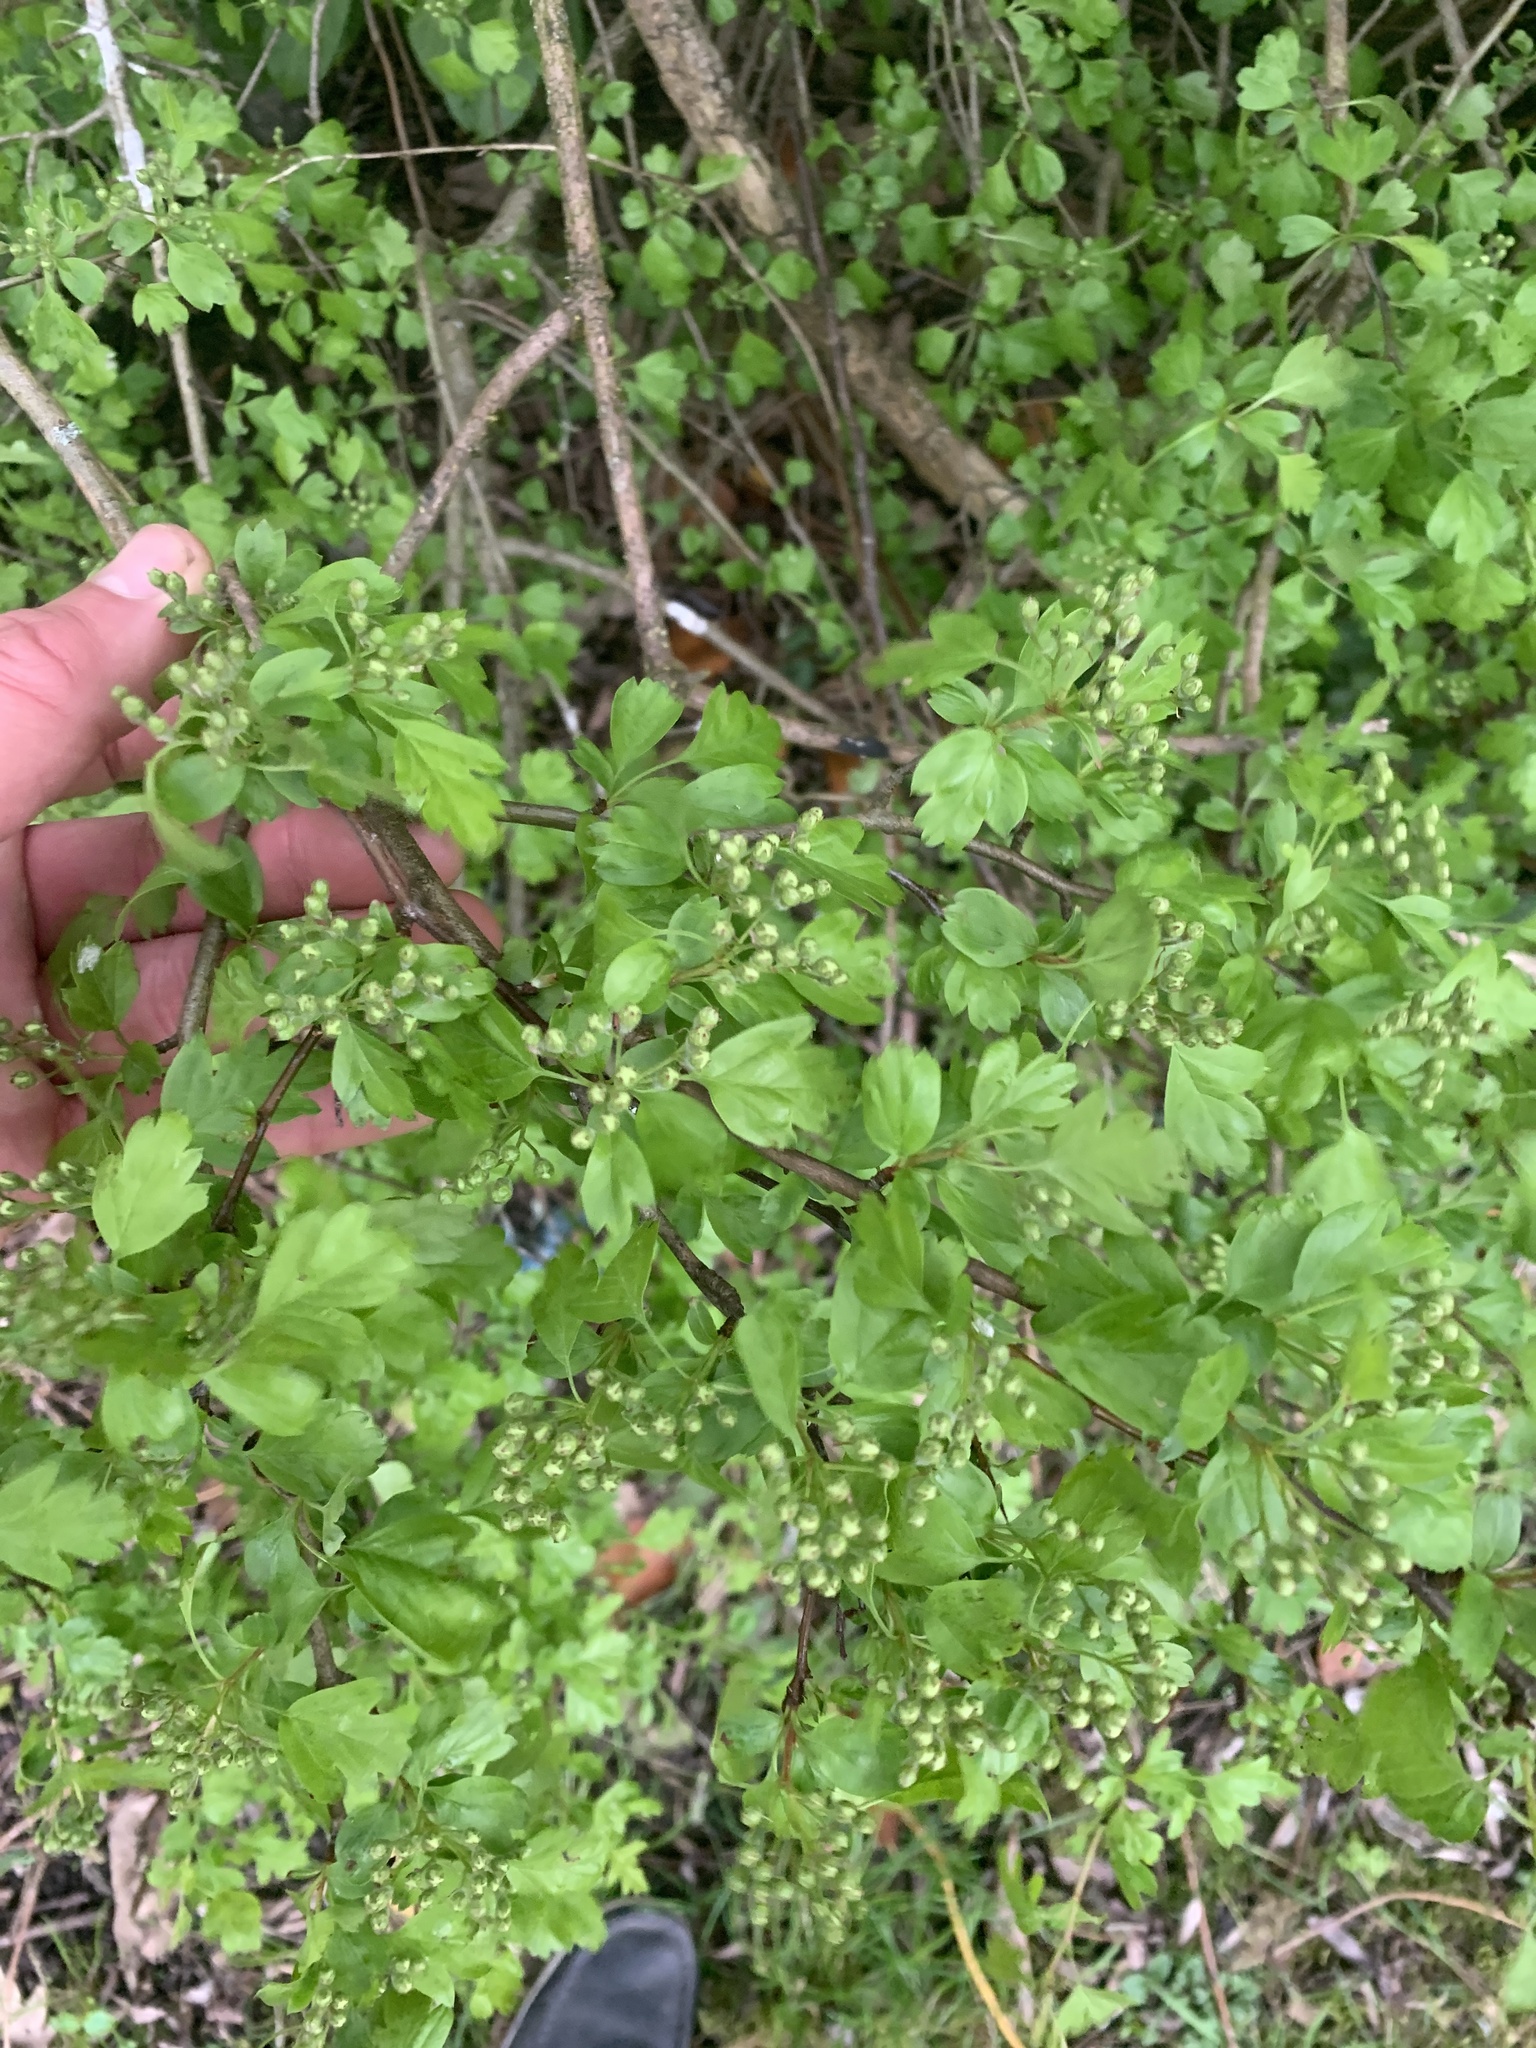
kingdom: Plantae
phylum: Tracheophyta
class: Magnoliopsida
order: Rosales
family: Rosaceae
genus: Crataegus
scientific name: Crataegus monogyna
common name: Hawthorn
